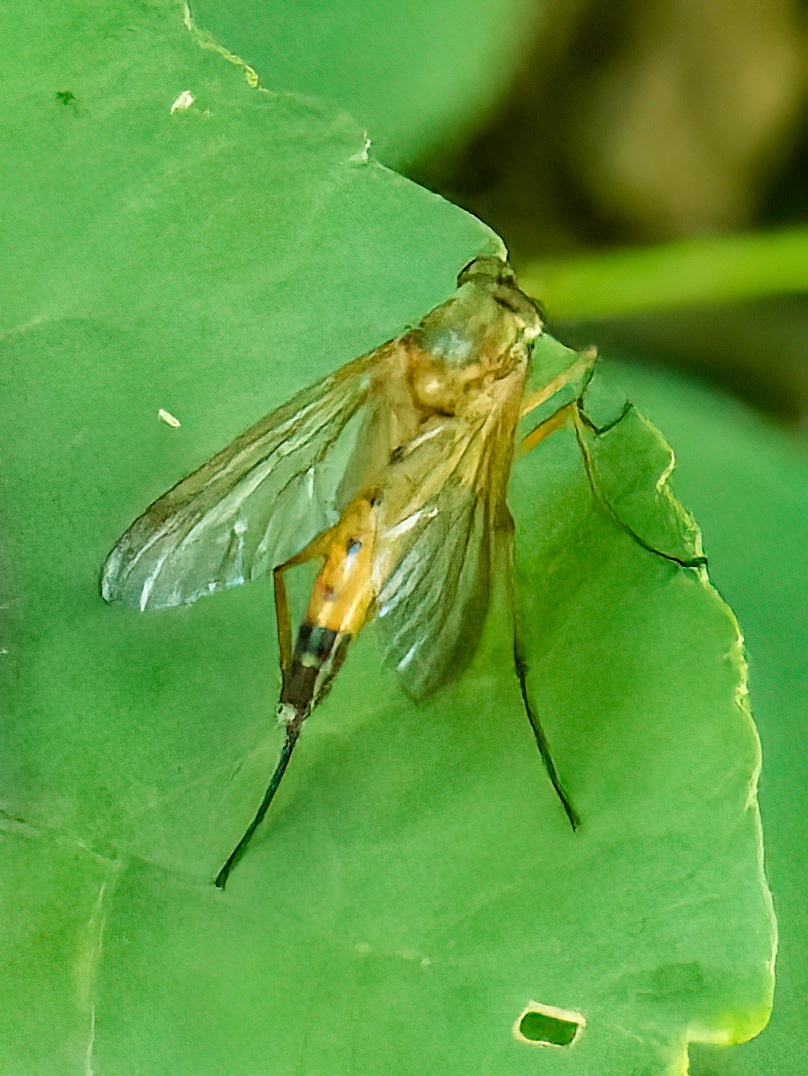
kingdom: Animalia
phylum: Arthropoda
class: Insecta
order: Diptera
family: Rhagionidae
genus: Rhagio
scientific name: Rhagio tringaria
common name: Marsh snipefly
